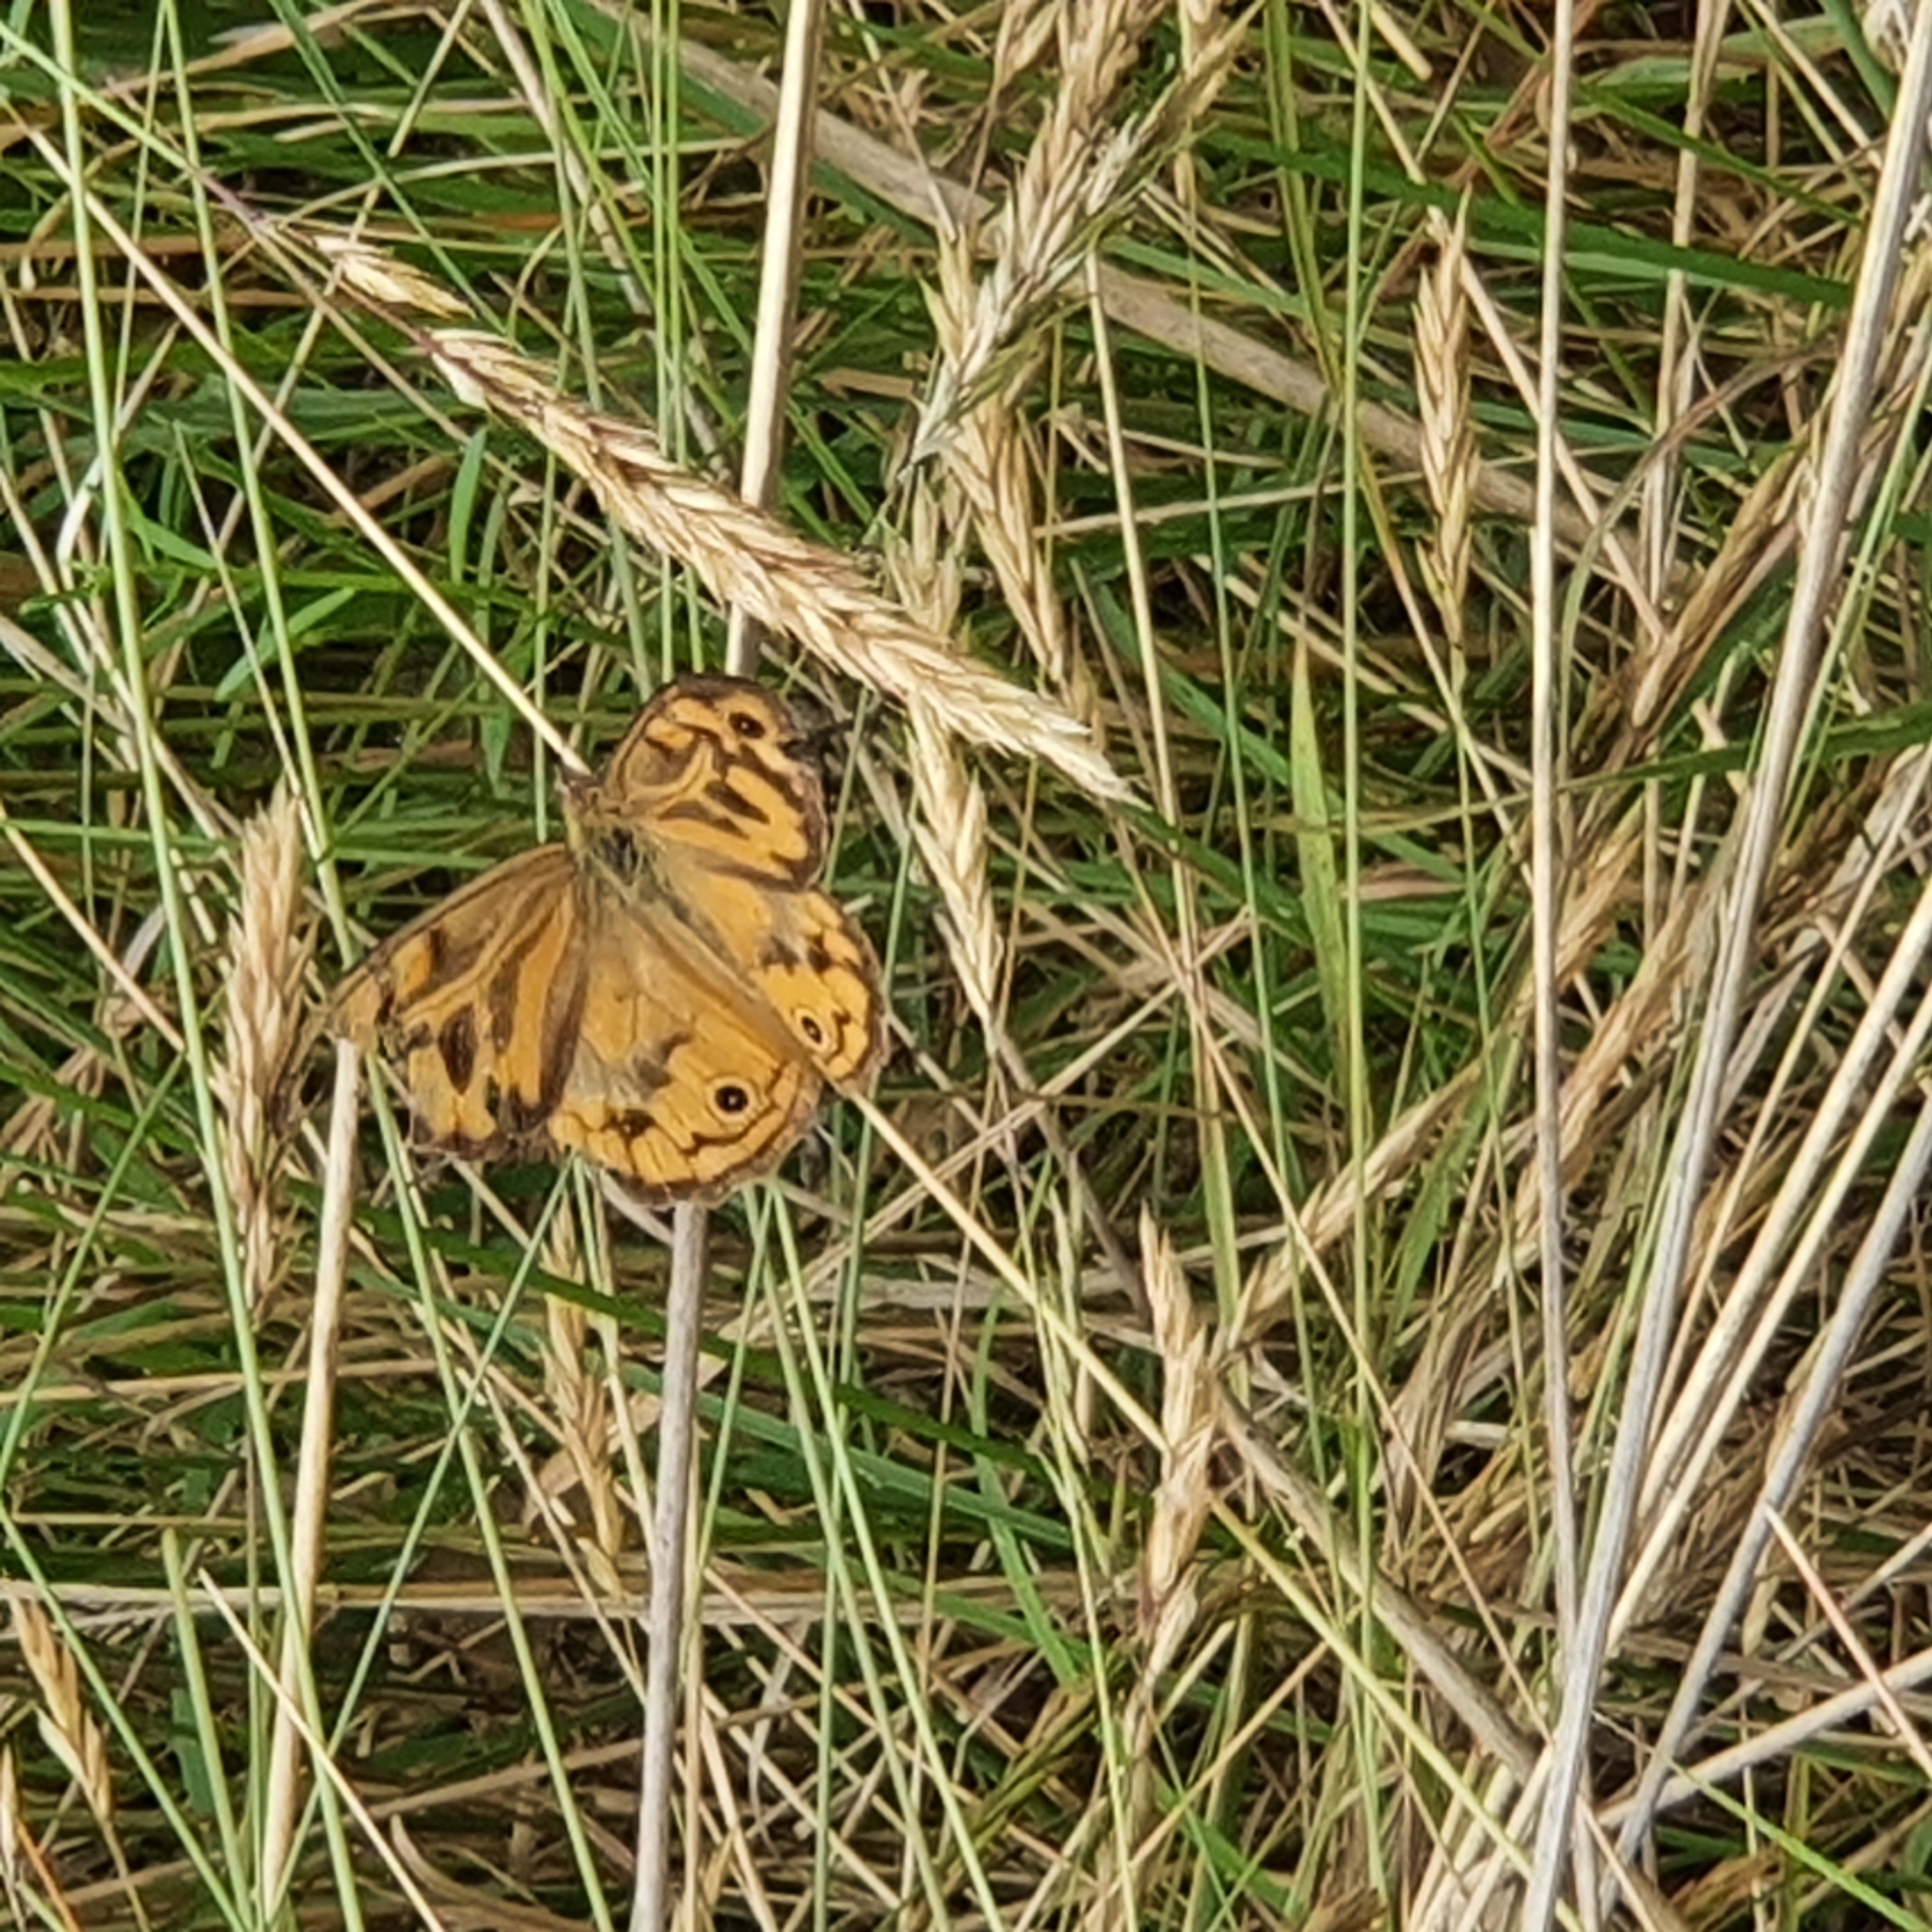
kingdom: Animalia
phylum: Arthropoda
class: Insecta
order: Lepidoptera
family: Nymphalidae
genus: Heteronympha
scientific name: Heteronympha merope
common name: Common brown
